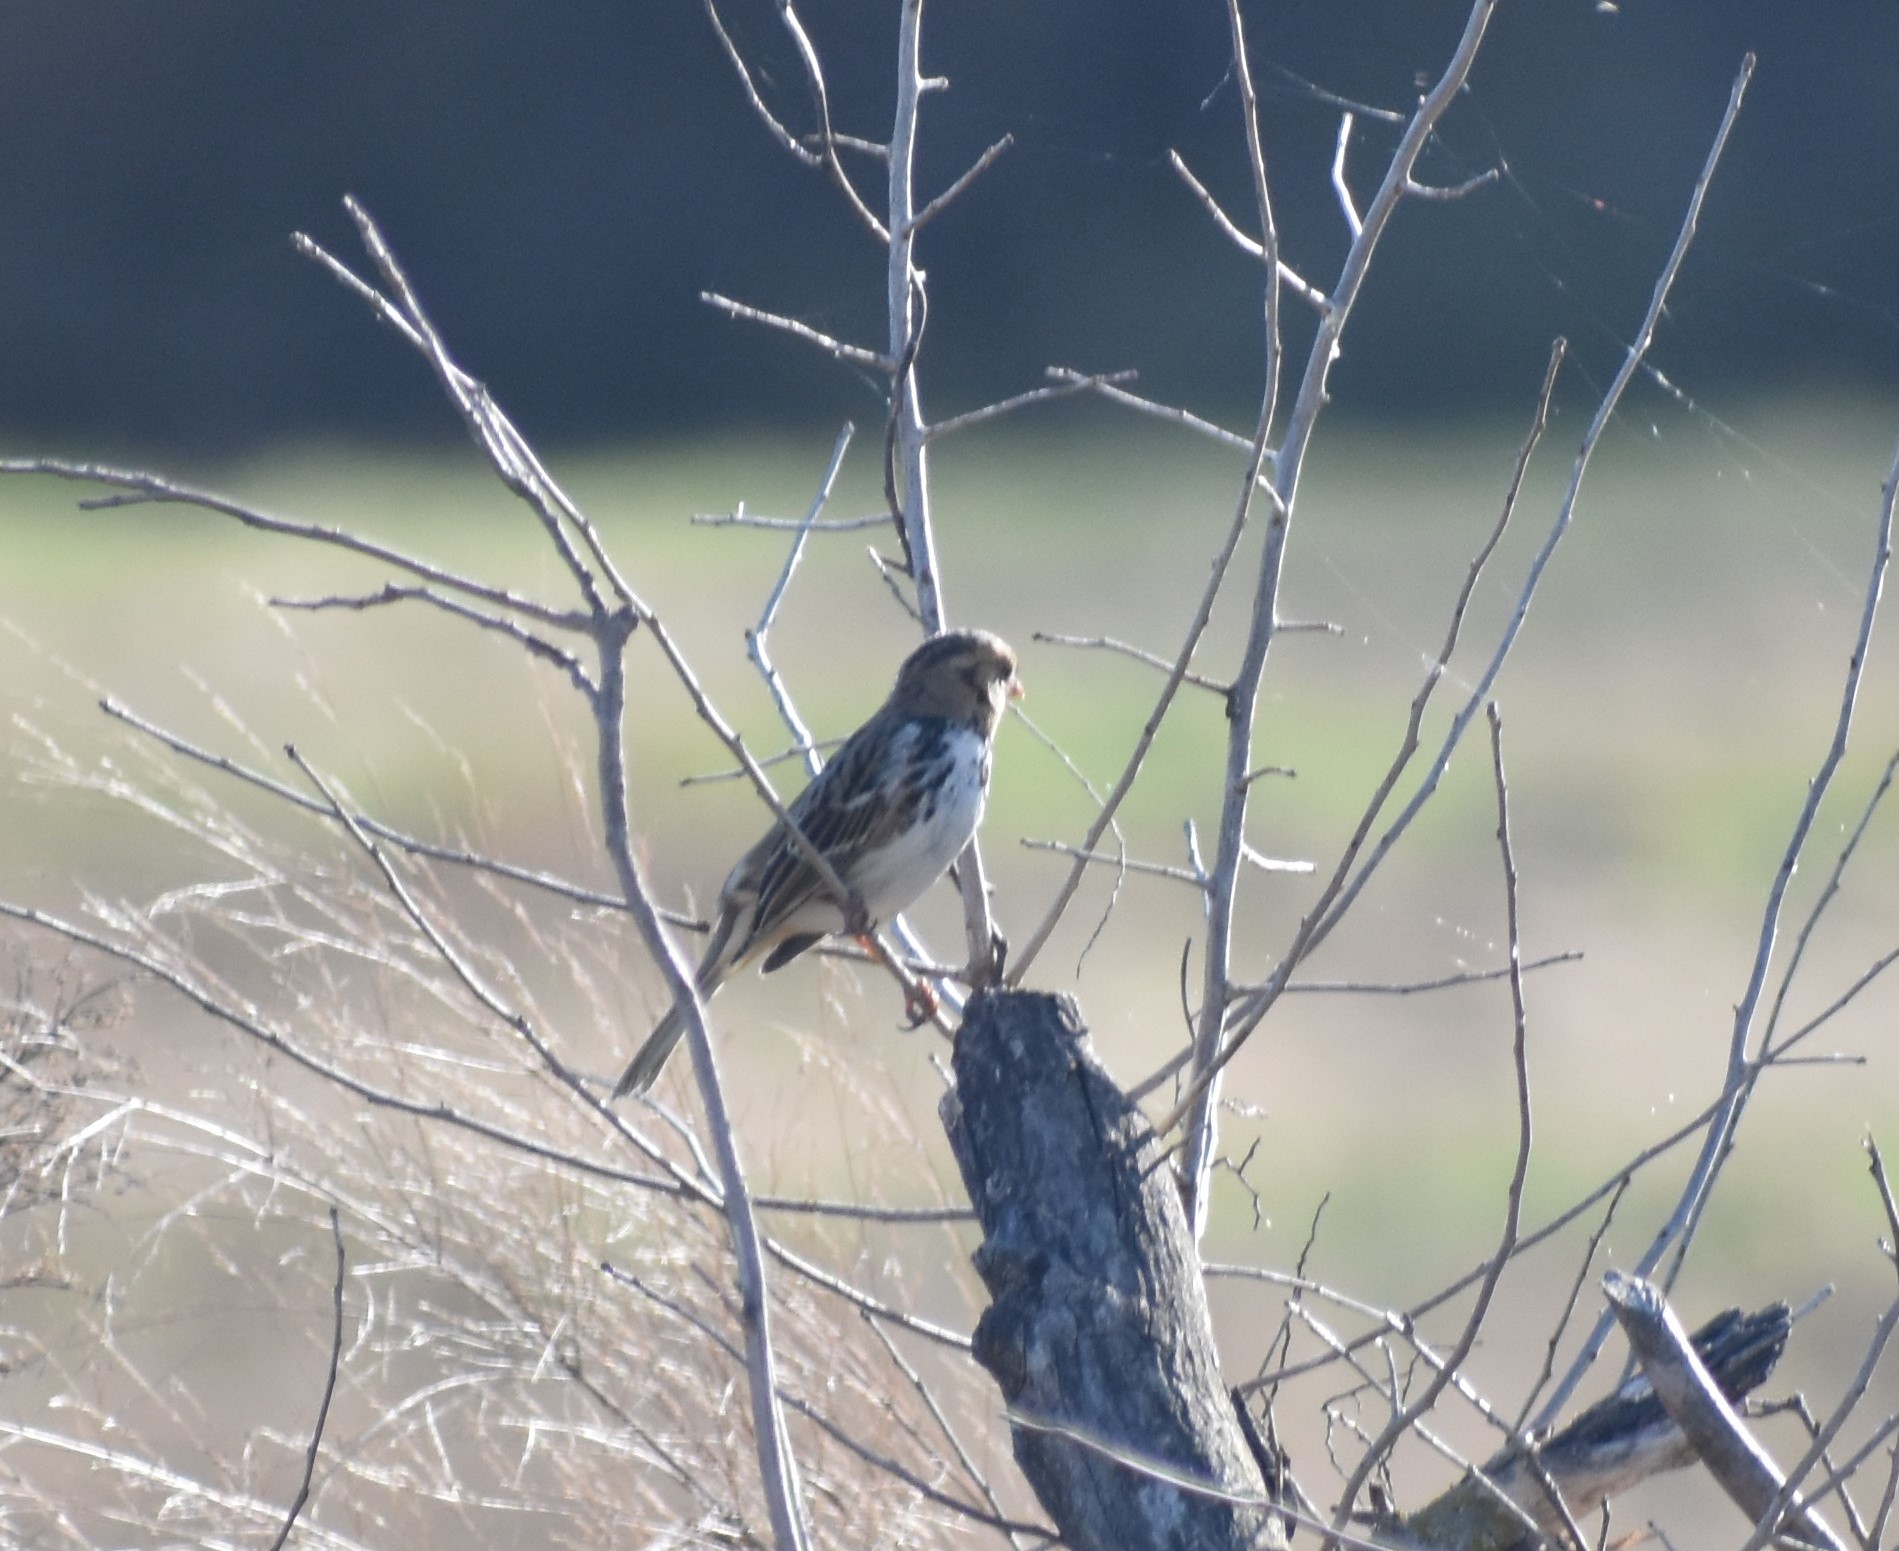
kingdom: Animalia
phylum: Chordata
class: Aves
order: Passeriformes
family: Passerellidae
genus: Zonotrichia
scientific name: Zonotrichia querula
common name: Harris's sparrow
